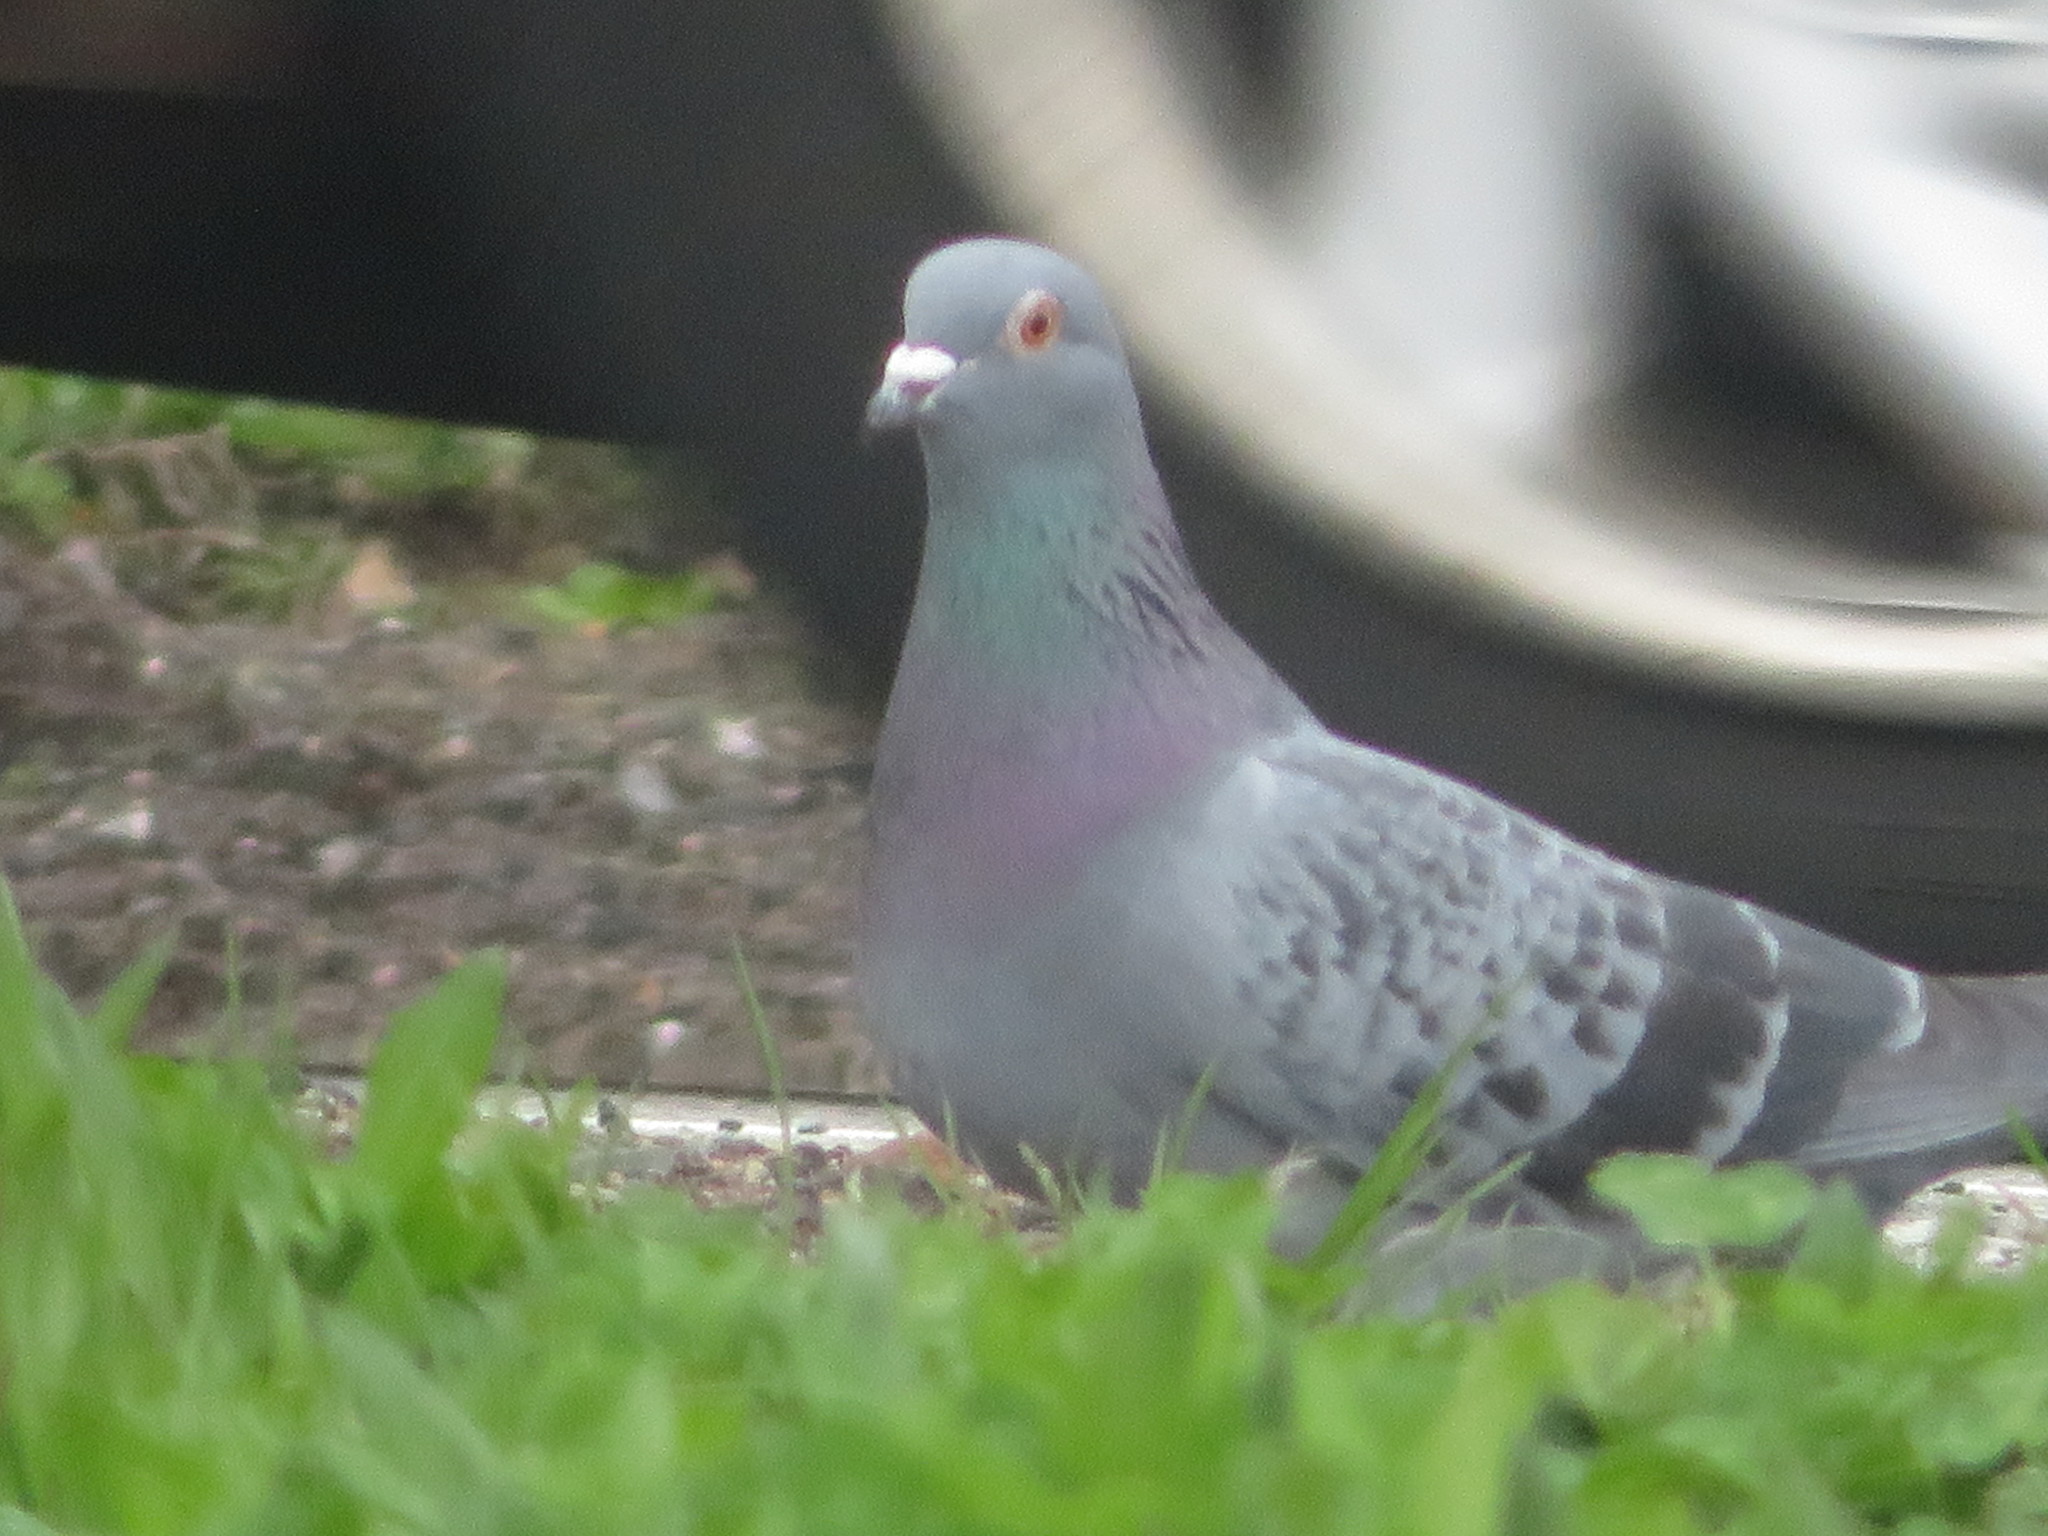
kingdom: Animalia
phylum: Chordata
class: Aves
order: Columbiformes
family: Columbidae
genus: Columba
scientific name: Columba livia
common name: Rock pigeon
